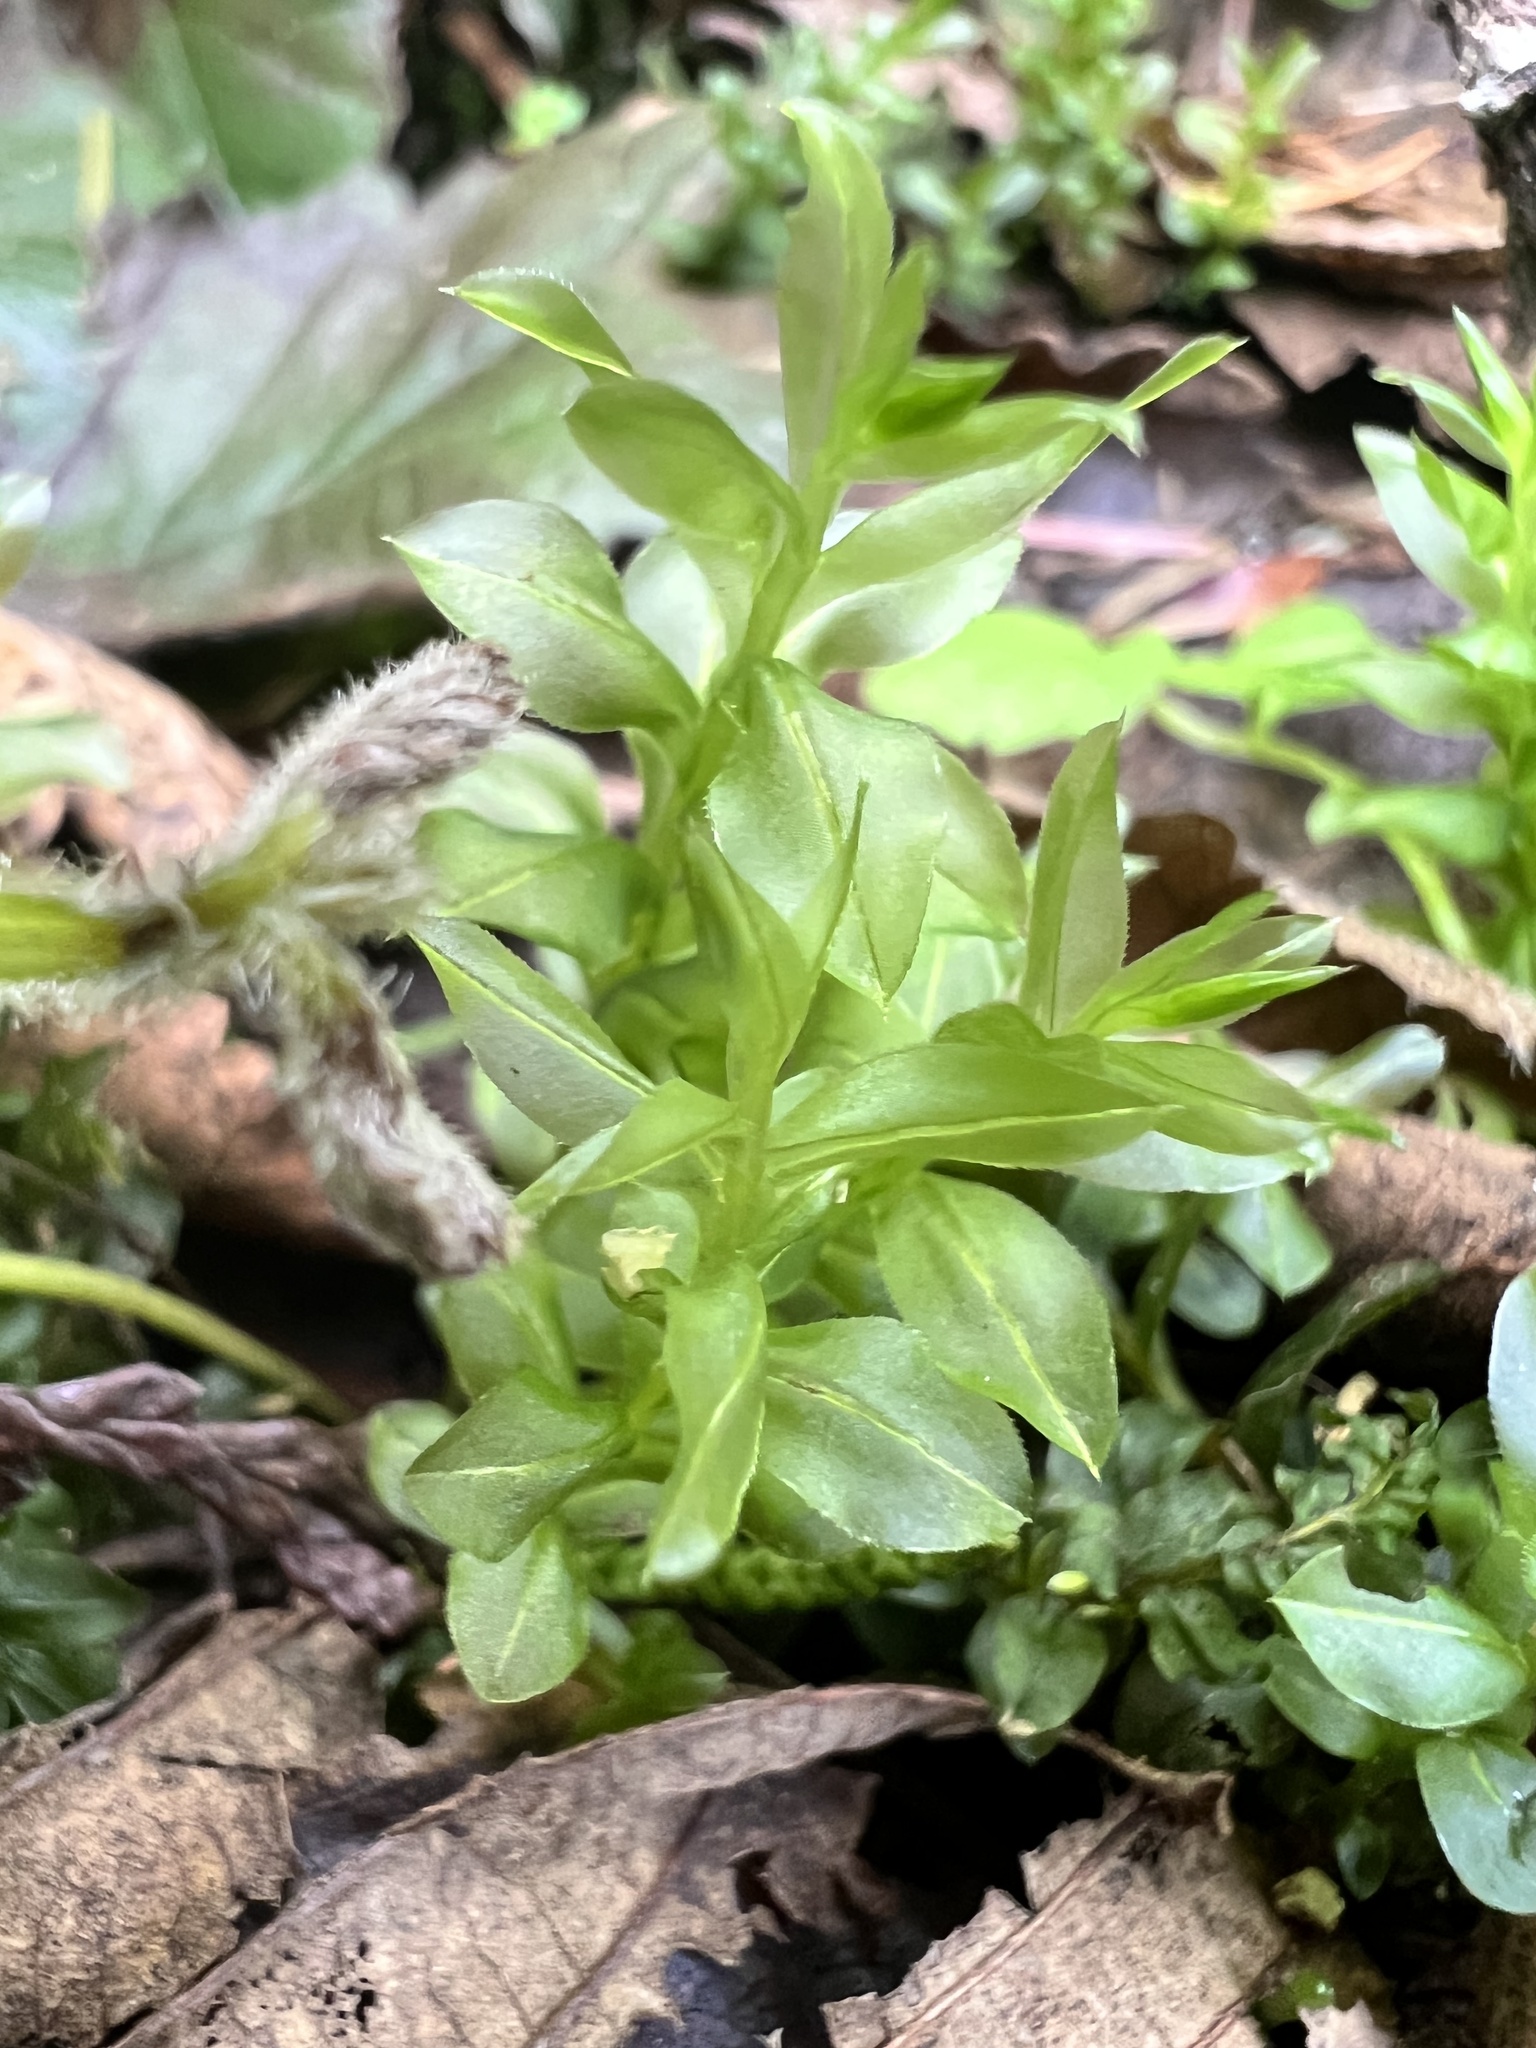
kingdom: Plantae
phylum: Bryophyta
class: Bryopsida
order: Bryales
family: Mniaceae
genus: Plagiomnium
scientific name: Plagiomnium insigne
